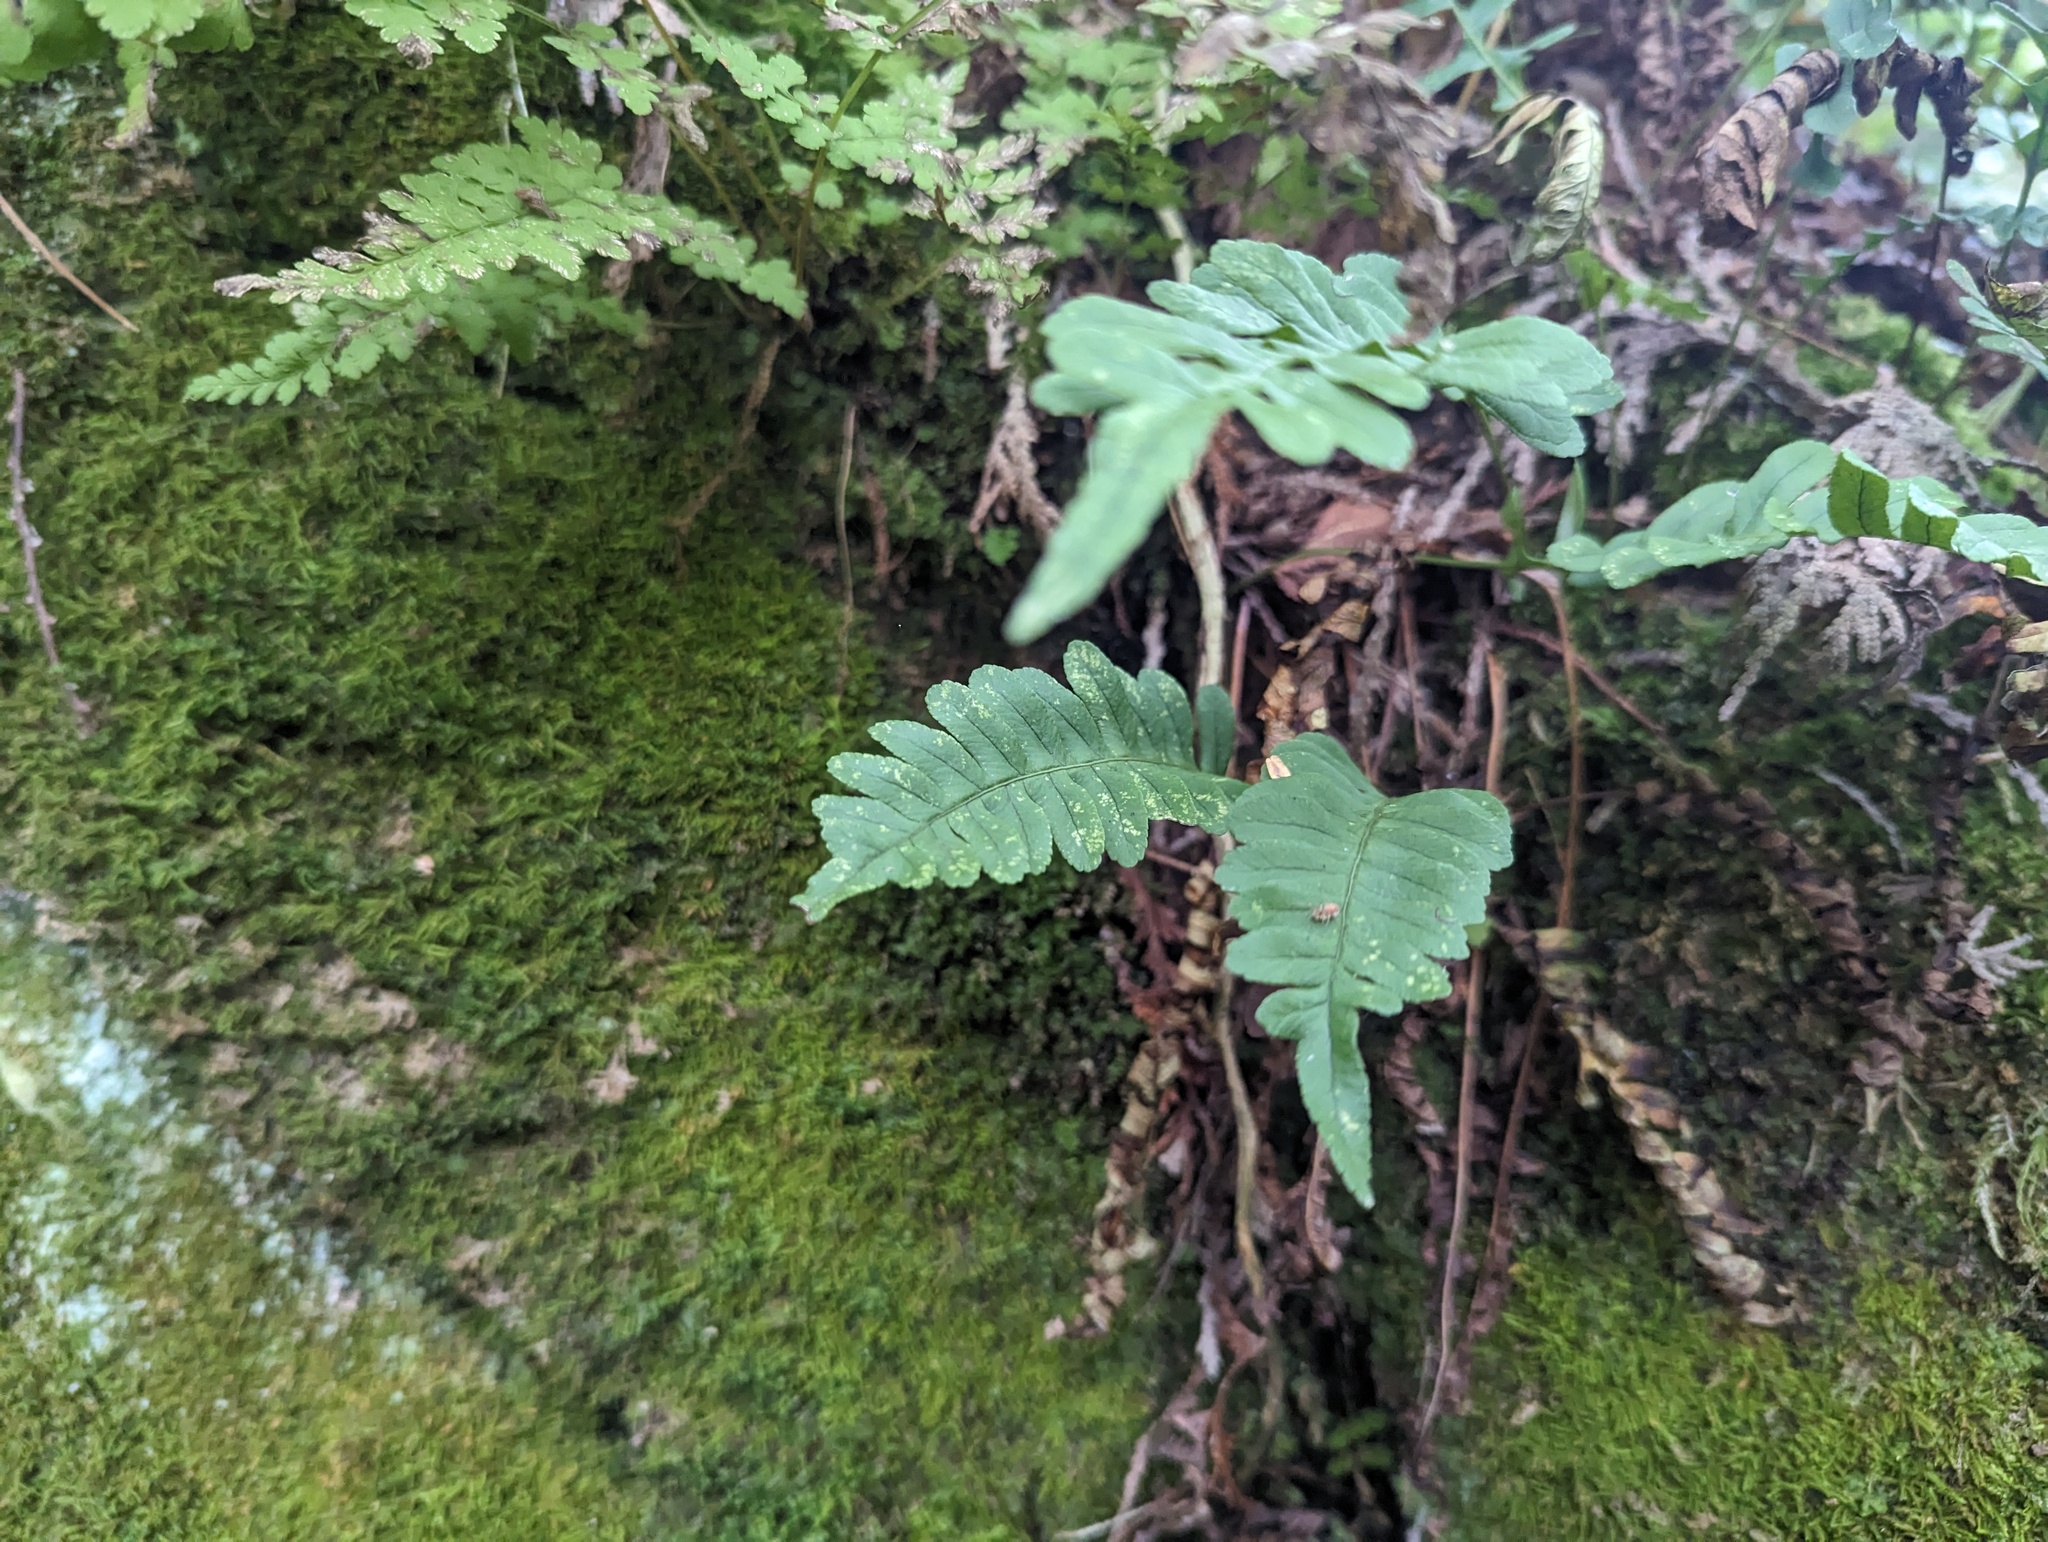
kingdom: Plantae
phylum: Tracheophyta
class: Polypodiopsida
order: Polypodiales
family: Polypodiaceae
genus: Polypodium
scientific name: Polypodium virginianum
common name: American wall fern
